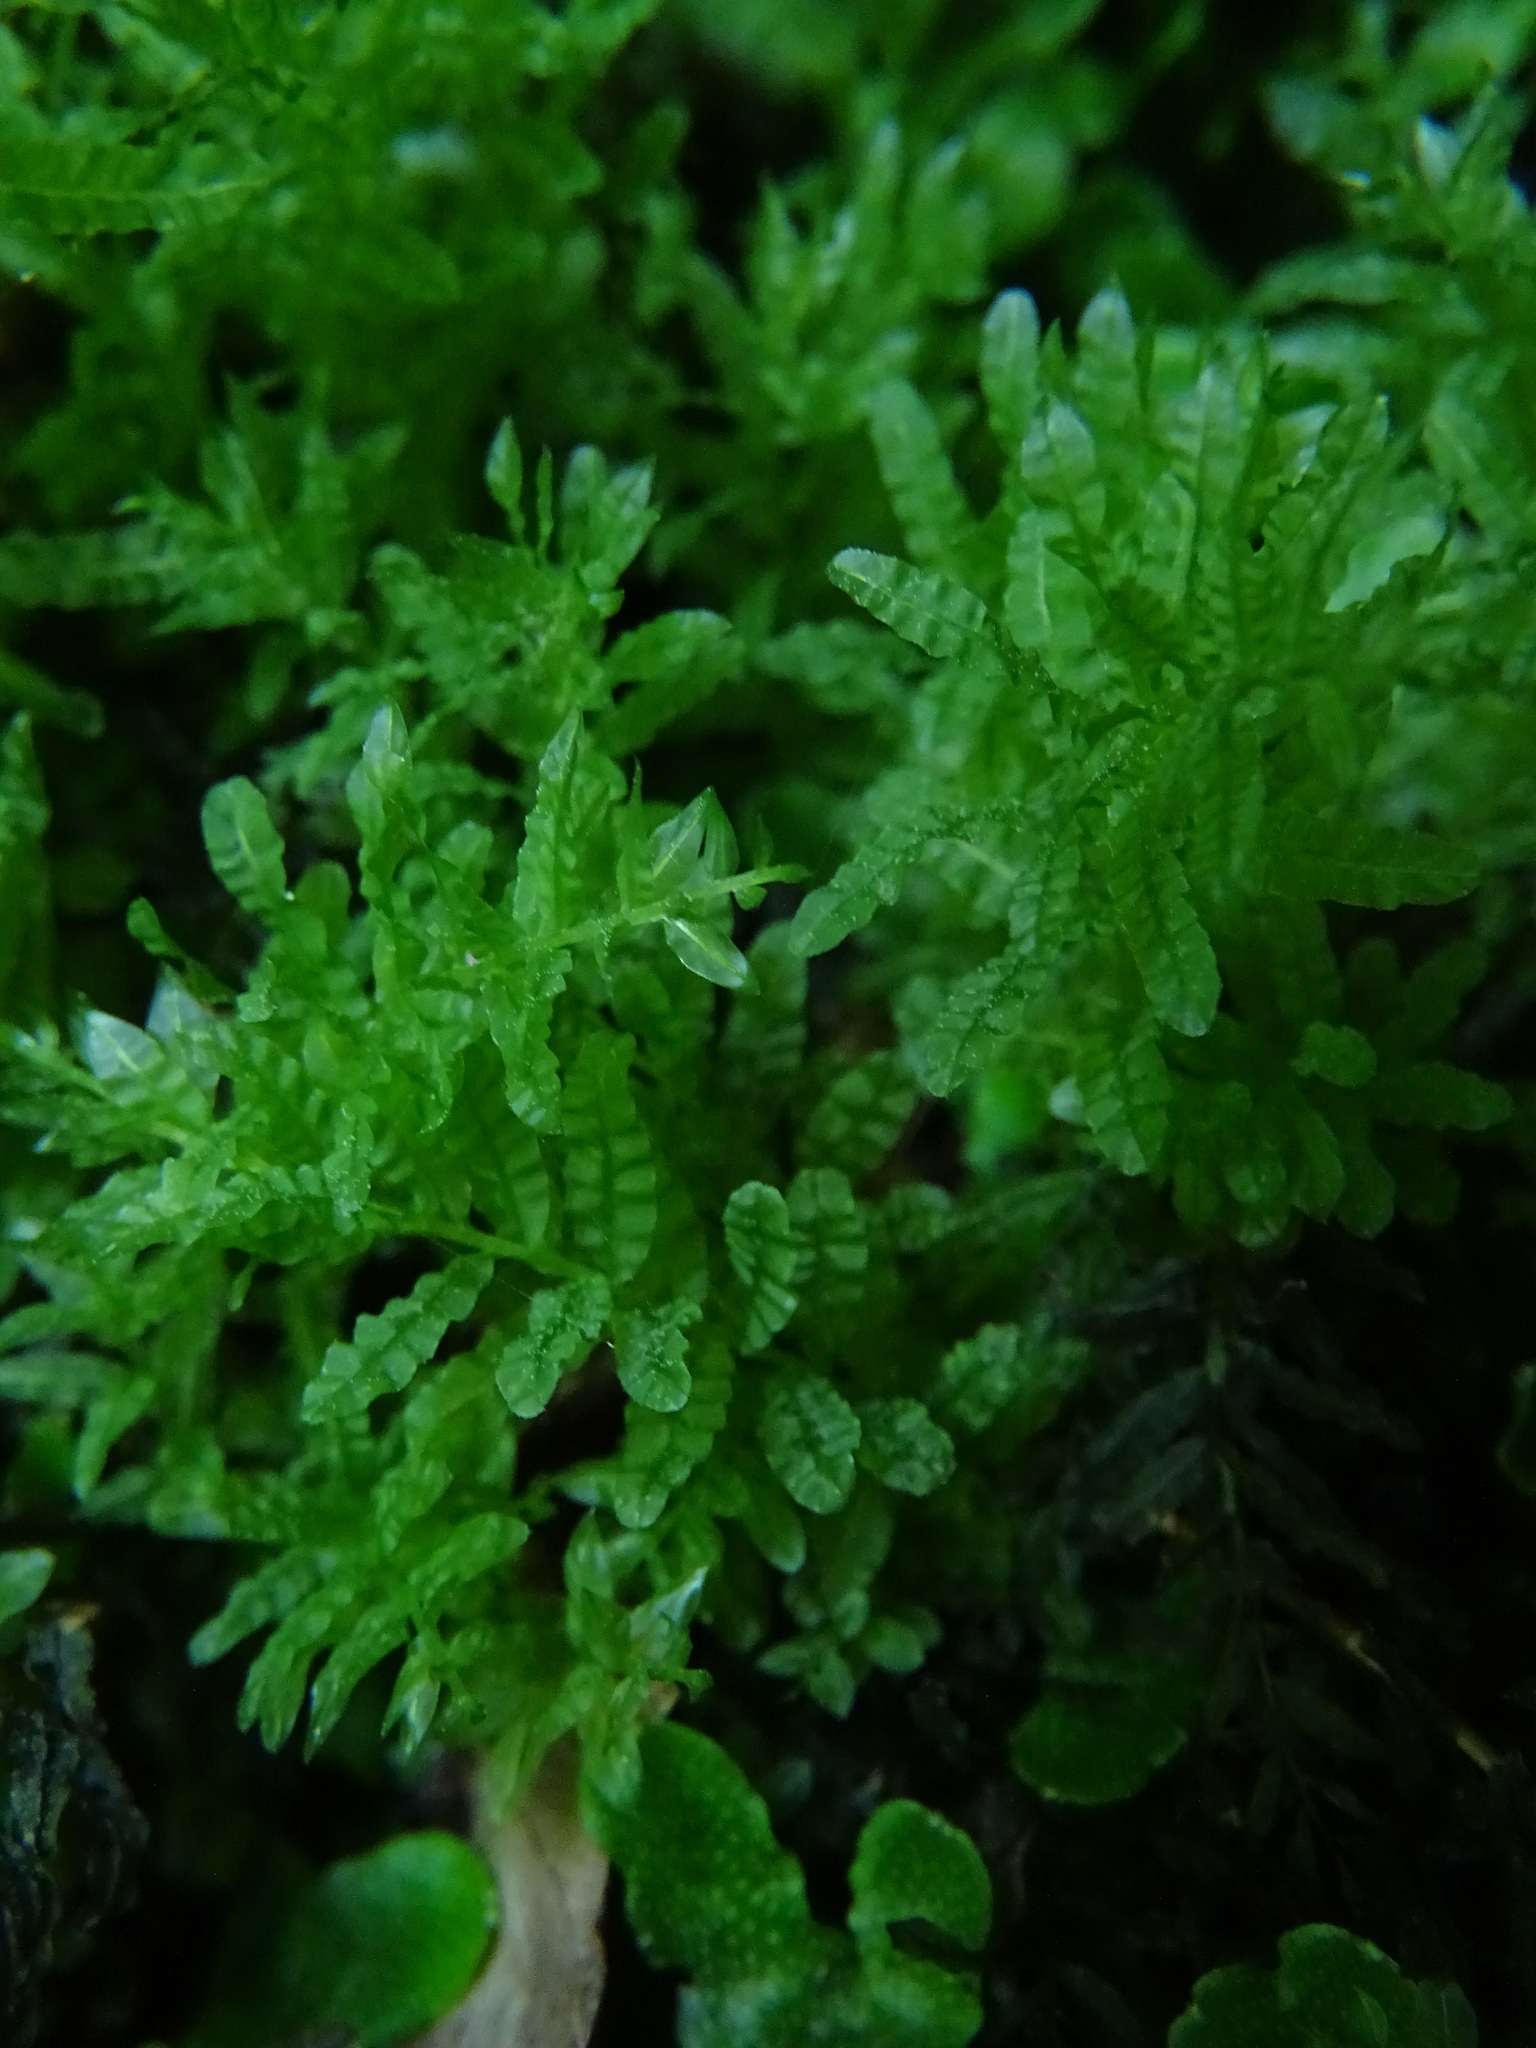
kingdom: Plantae
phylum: Bryophyta
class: Bryopsida
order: Bryales
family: Mniaceae
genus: Plagiomnium
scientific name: Plagiomnium undulatum
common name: Hart's-tongue thyme-moss
